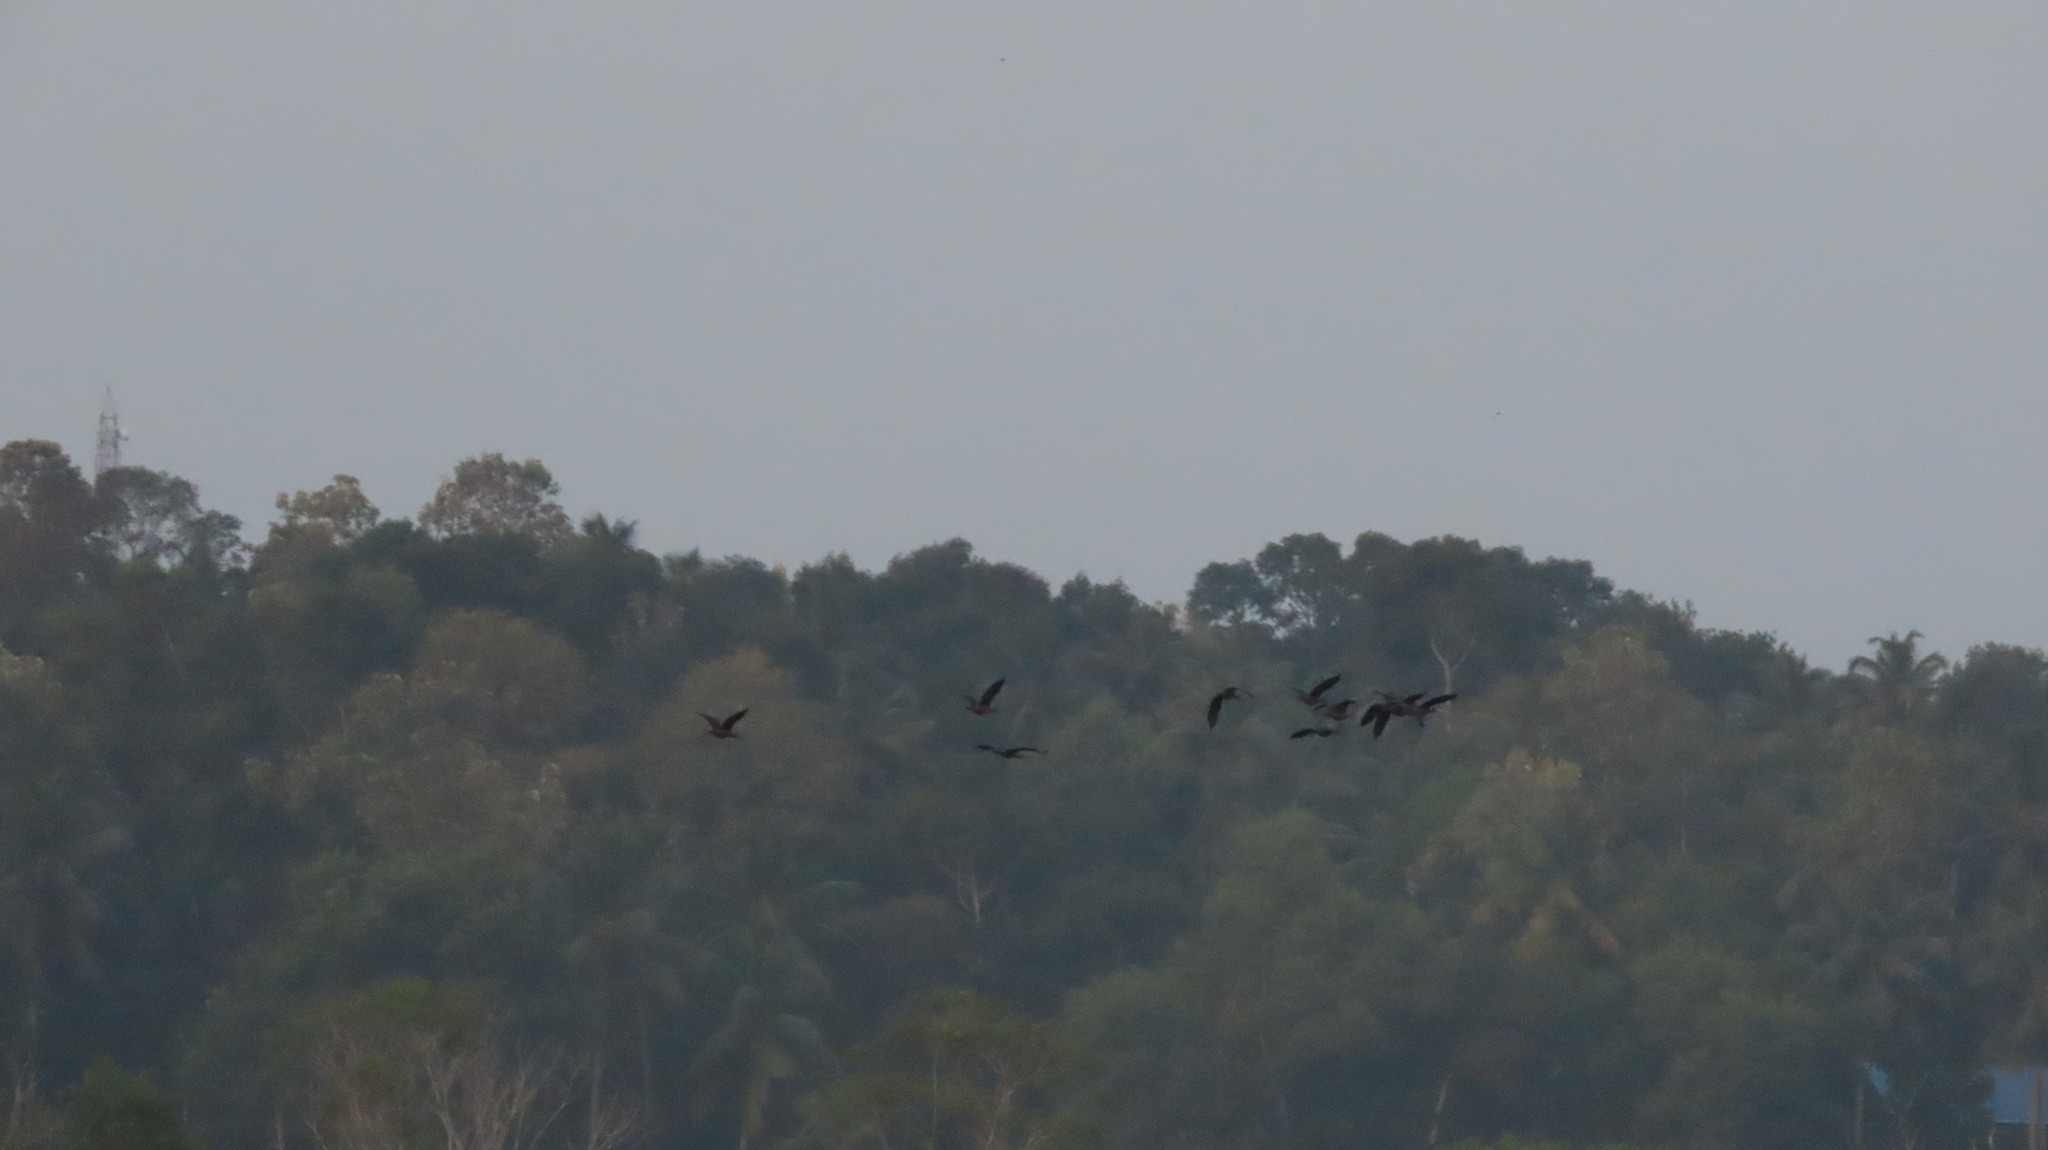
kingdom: Animalia
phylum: Chordata
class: Aves
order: Anseriformes
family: Anatidae
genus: Dendrocygna
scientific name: Dendrocygna javanica
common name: Lesser whistling-duck
